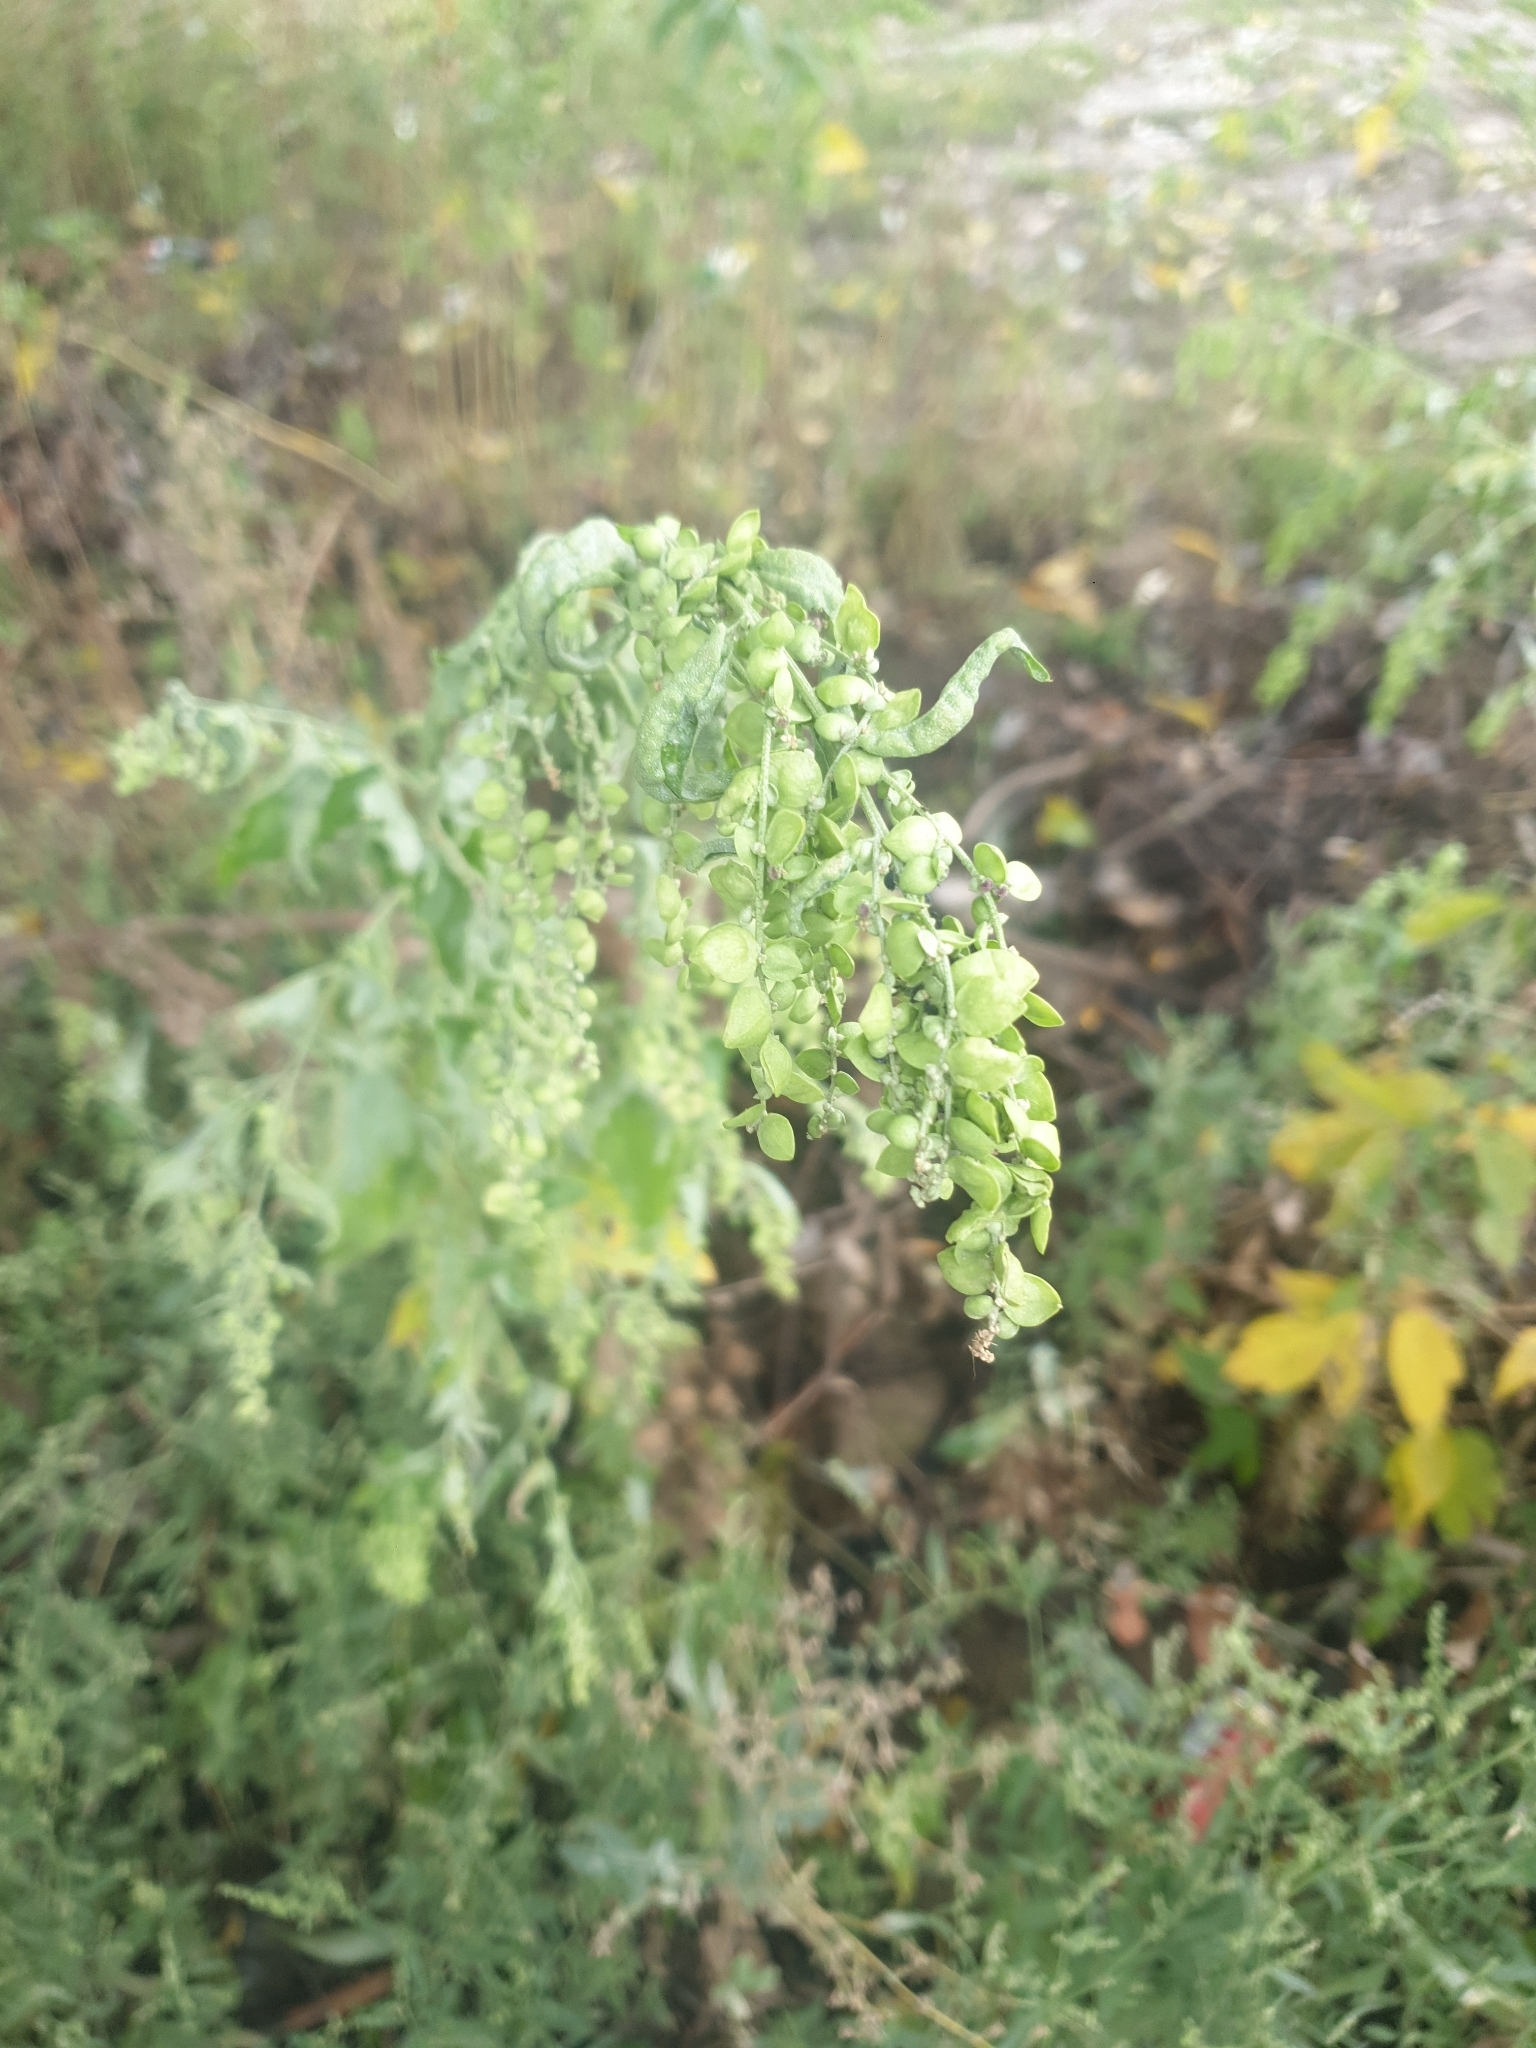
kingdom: Plantae
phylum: Tracheophyta
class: Magnoliopsida
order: Caryophyllales
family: Amaranthaceae
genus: Atriplex
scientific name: Atriplex sagittata
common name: Purple orache
